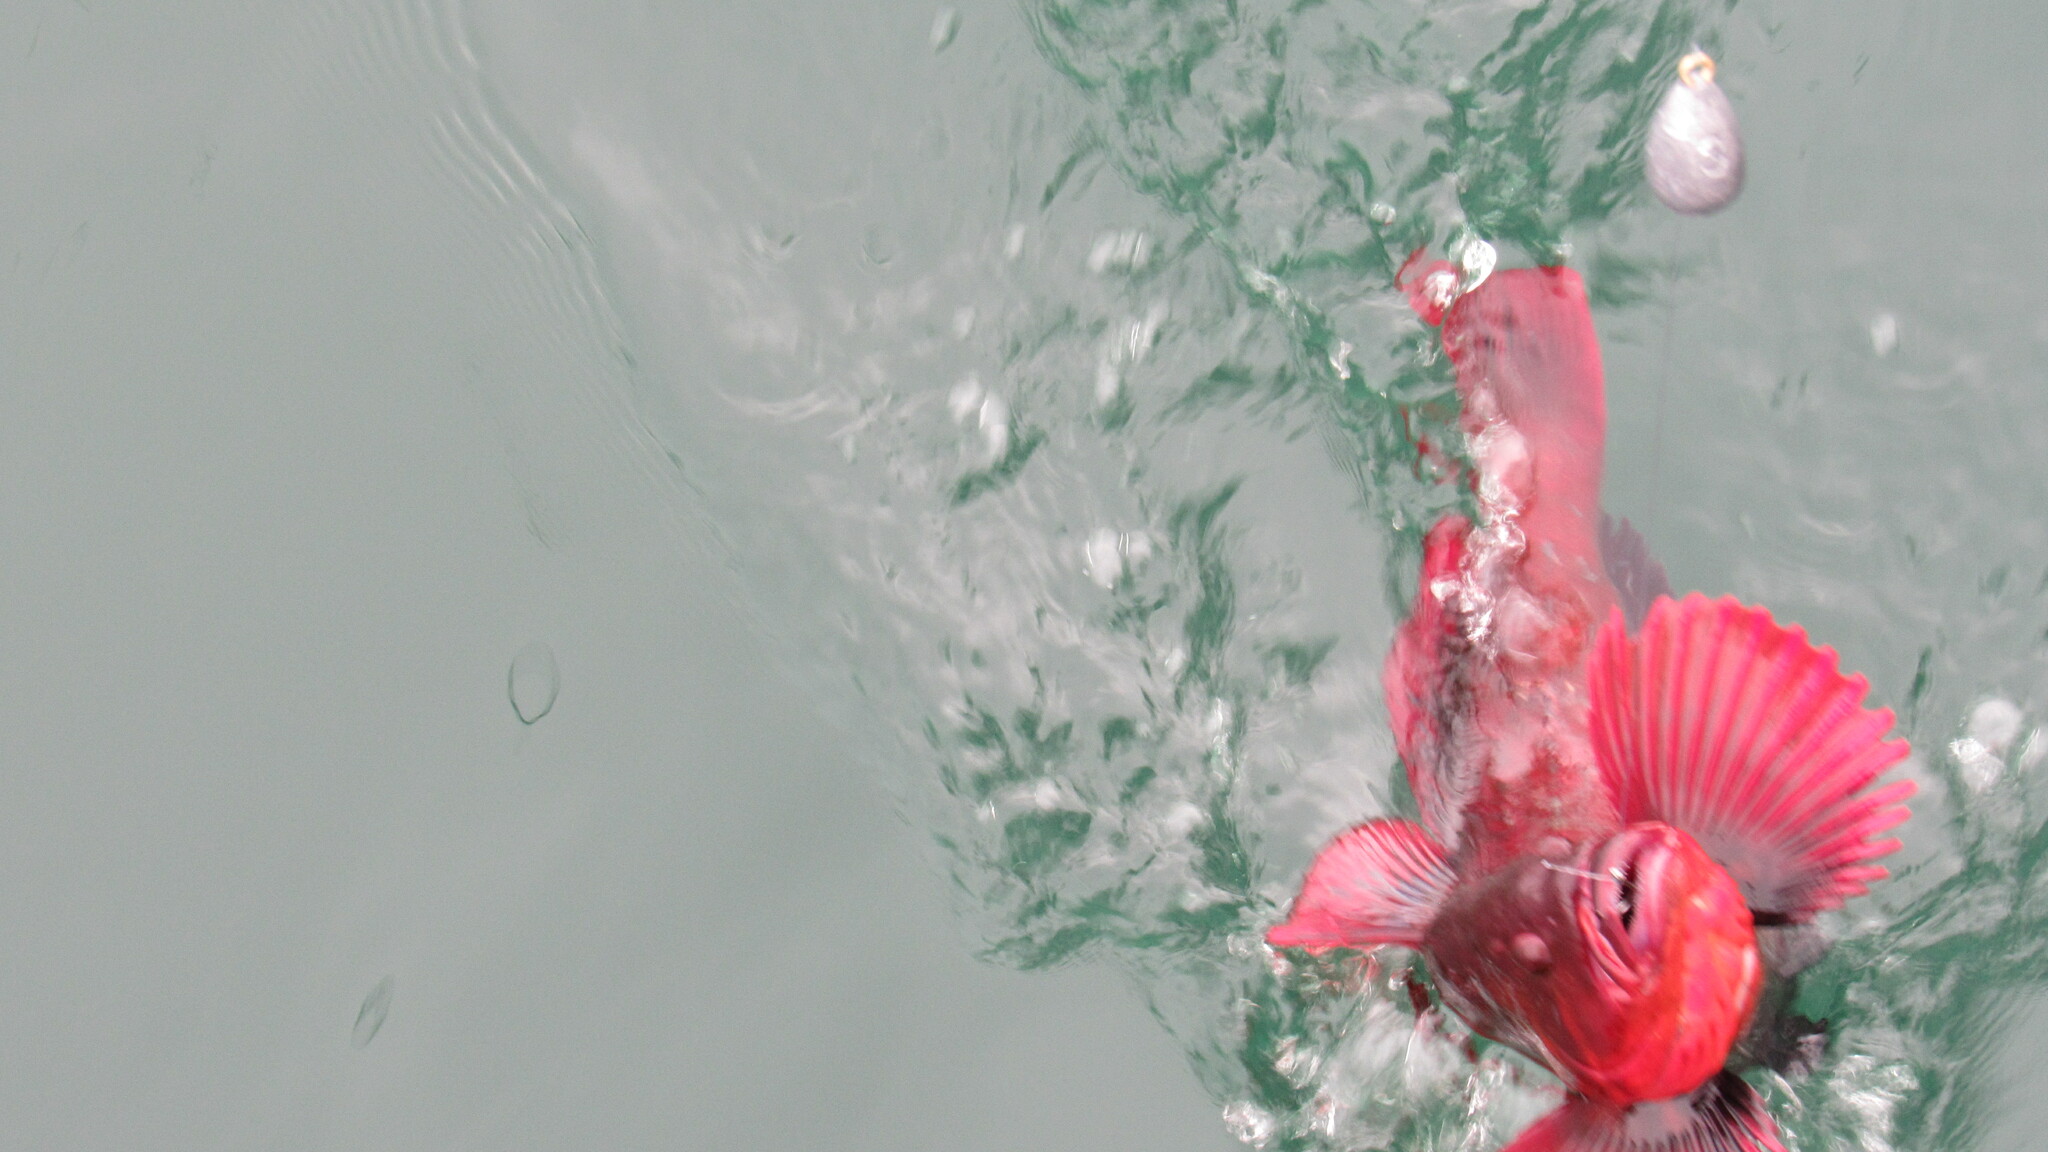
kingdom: Animalia
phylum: Chordata
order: Scorpaeniformes
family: Hexagrammidae
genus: Hexagrammos
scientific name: Hexagrammos lagocephalus
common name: Rock greenling
